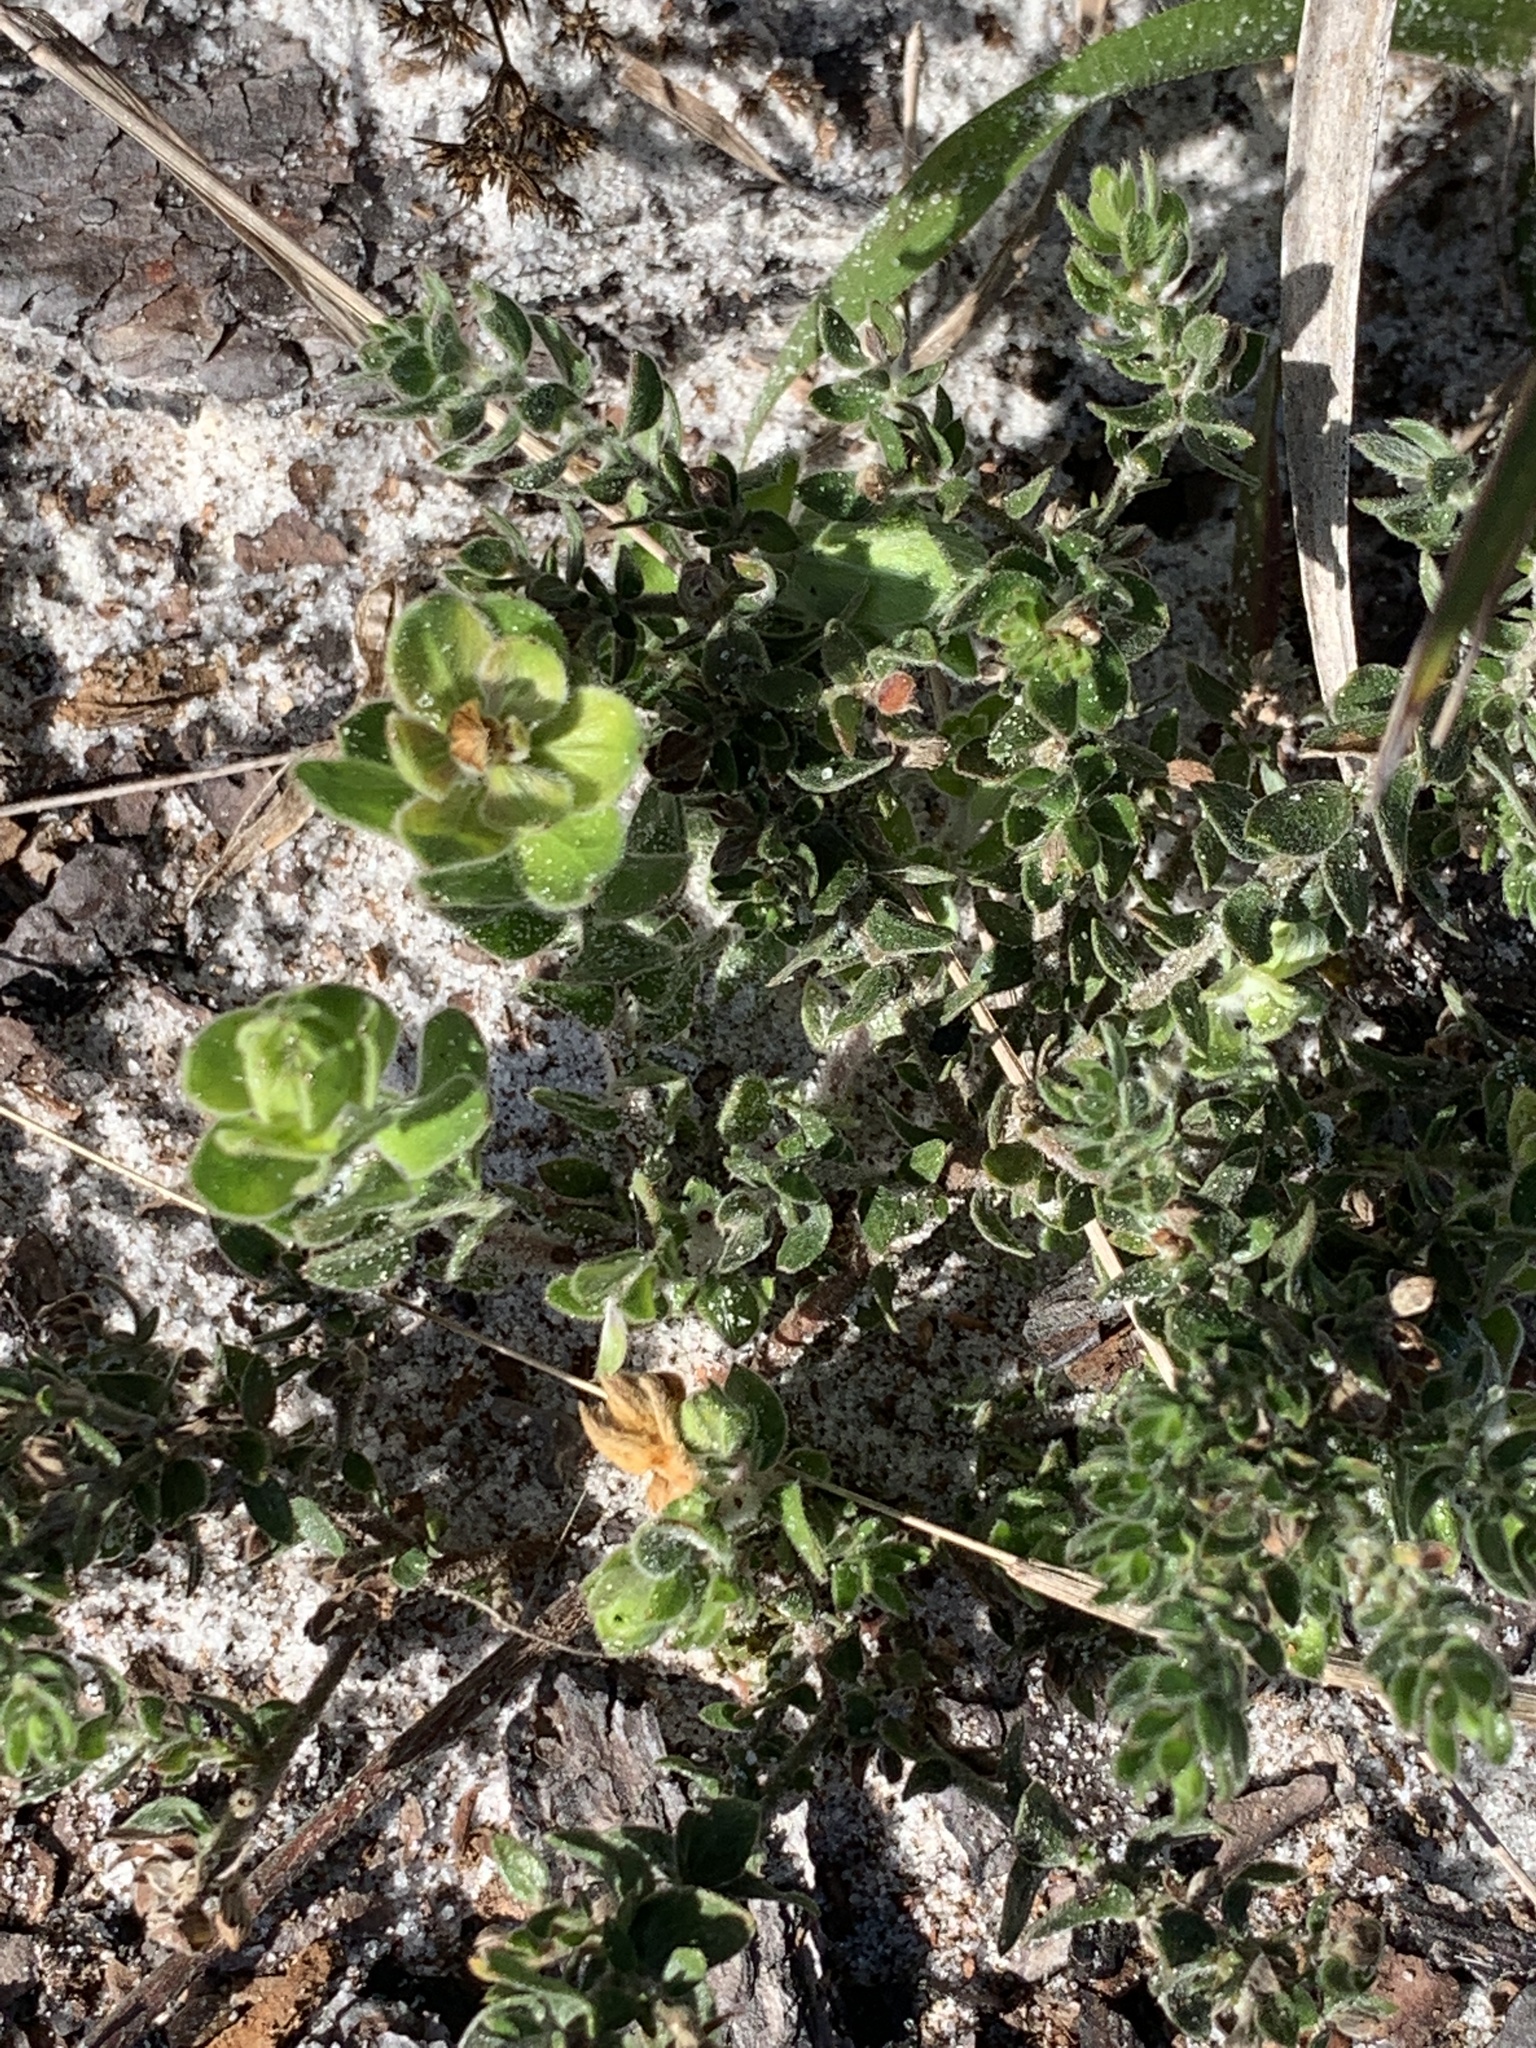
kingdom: Plantae
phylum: Tracheophyta
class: Magnoliopsida
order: Malvales
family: Cistaceae
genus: Lechea
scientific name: Lechea cernua
